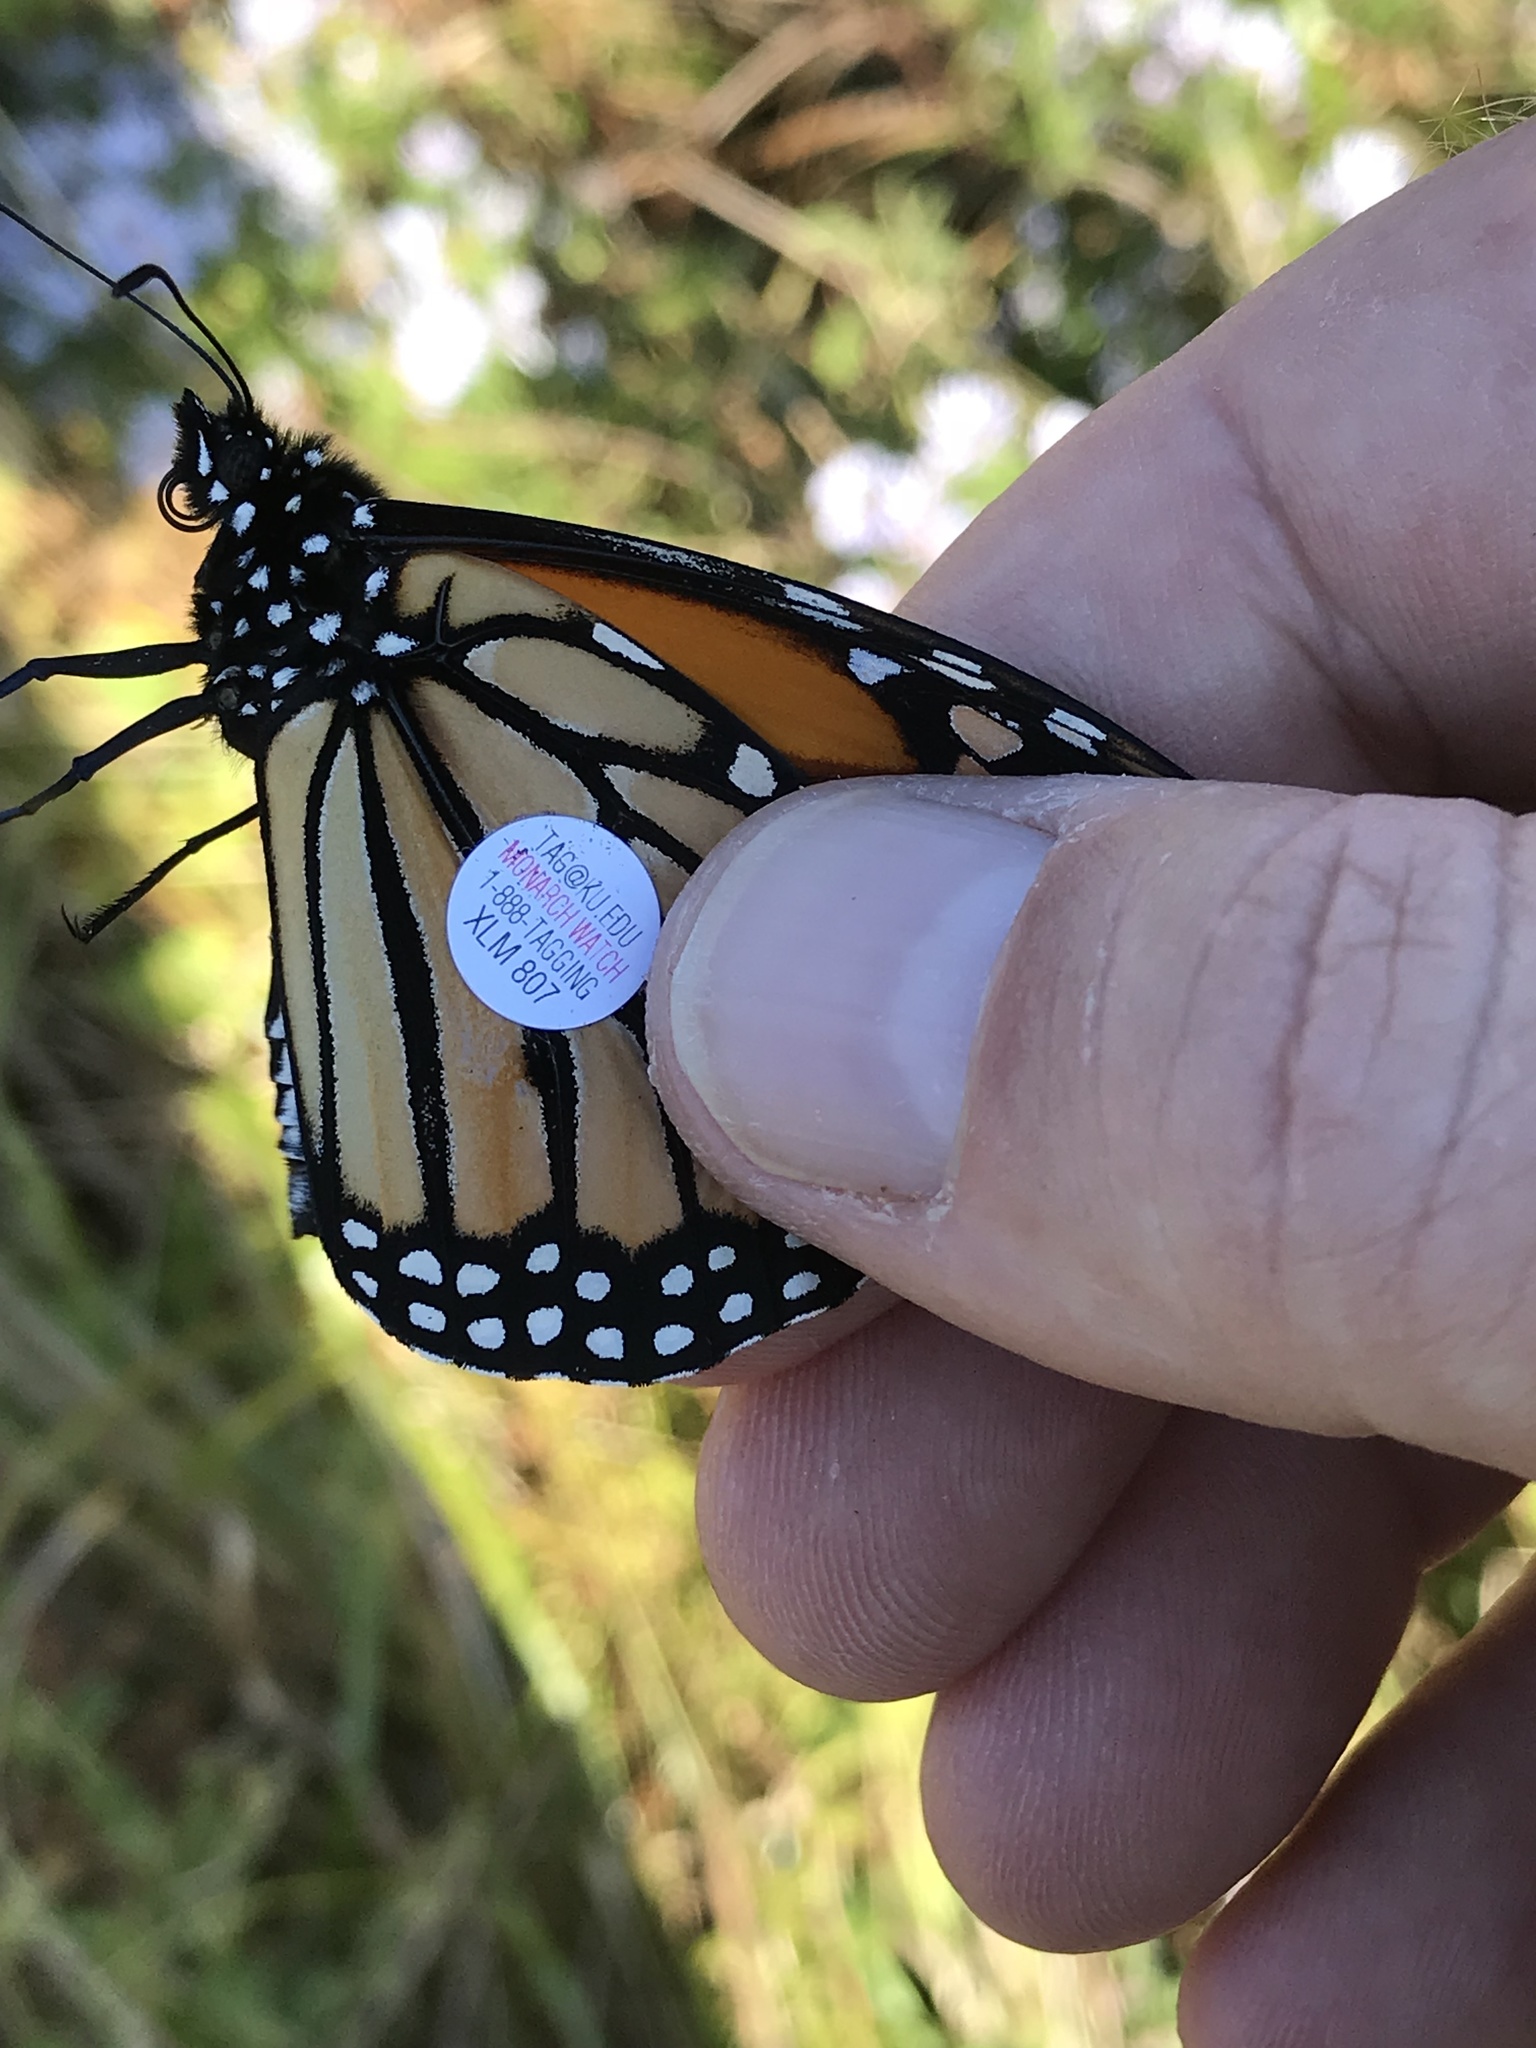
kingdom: Animalia
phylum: Arthropoda
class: Insecta
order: Lepidoptera
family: Nymphalidae
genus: Danaus
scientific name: Danaus plexippus
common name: Monarch
